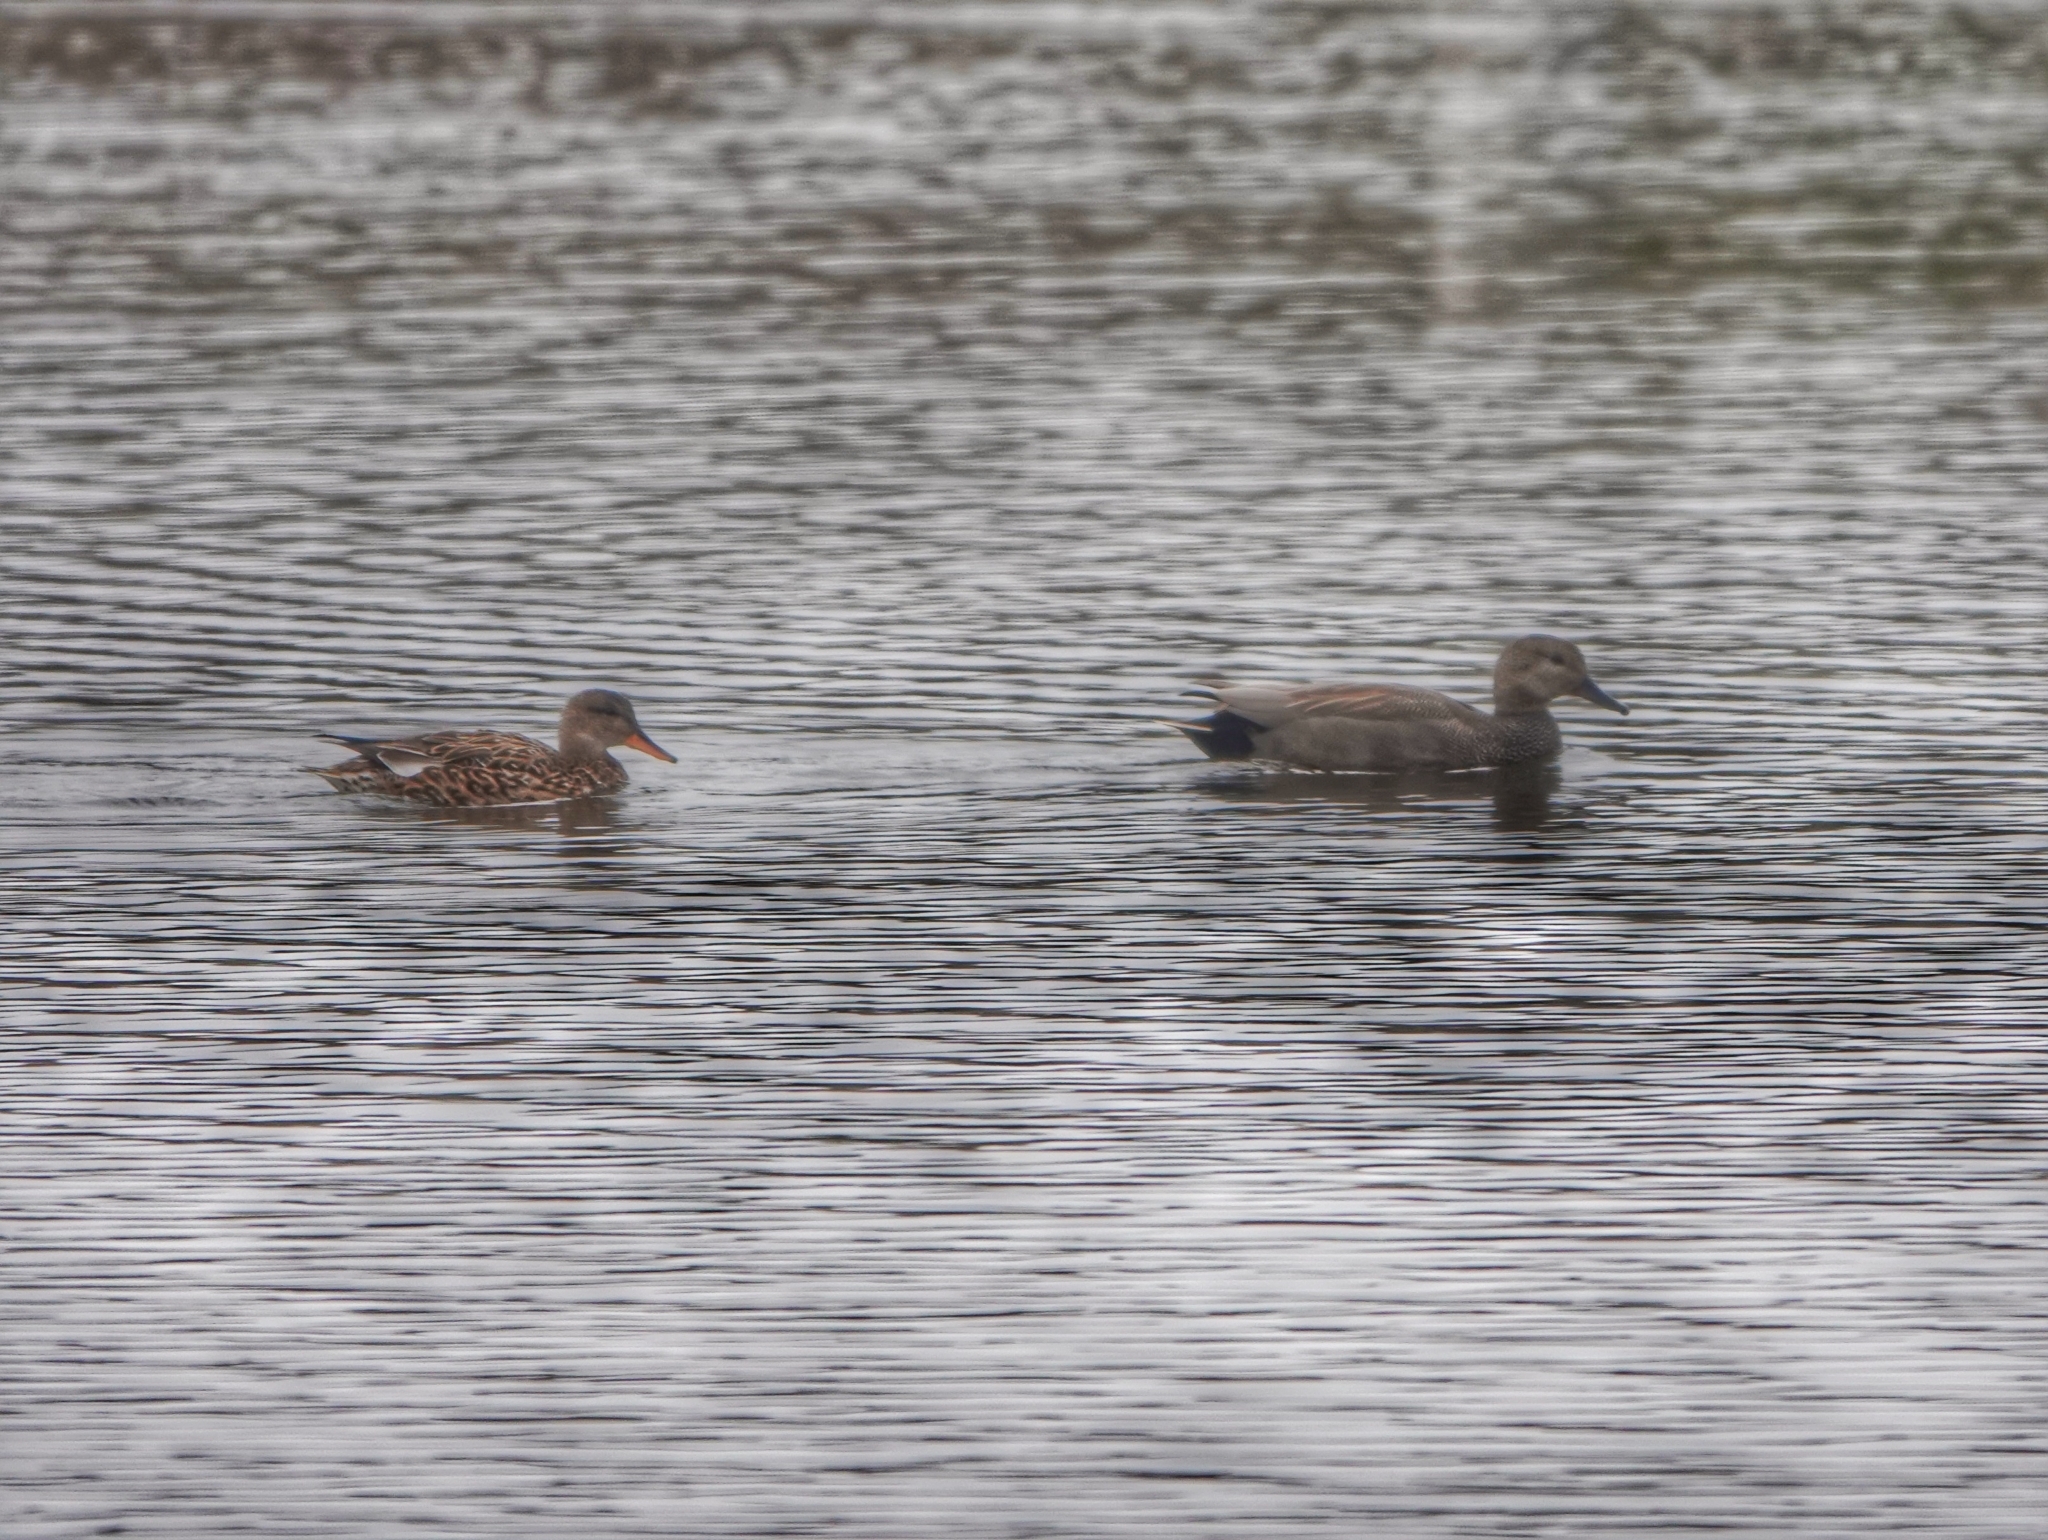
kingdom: Animalia
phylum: Chordata
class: Aves
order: Anseriformes
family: Anatidae
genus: Mareca
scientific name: Mareca strepera
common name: Gadwall
